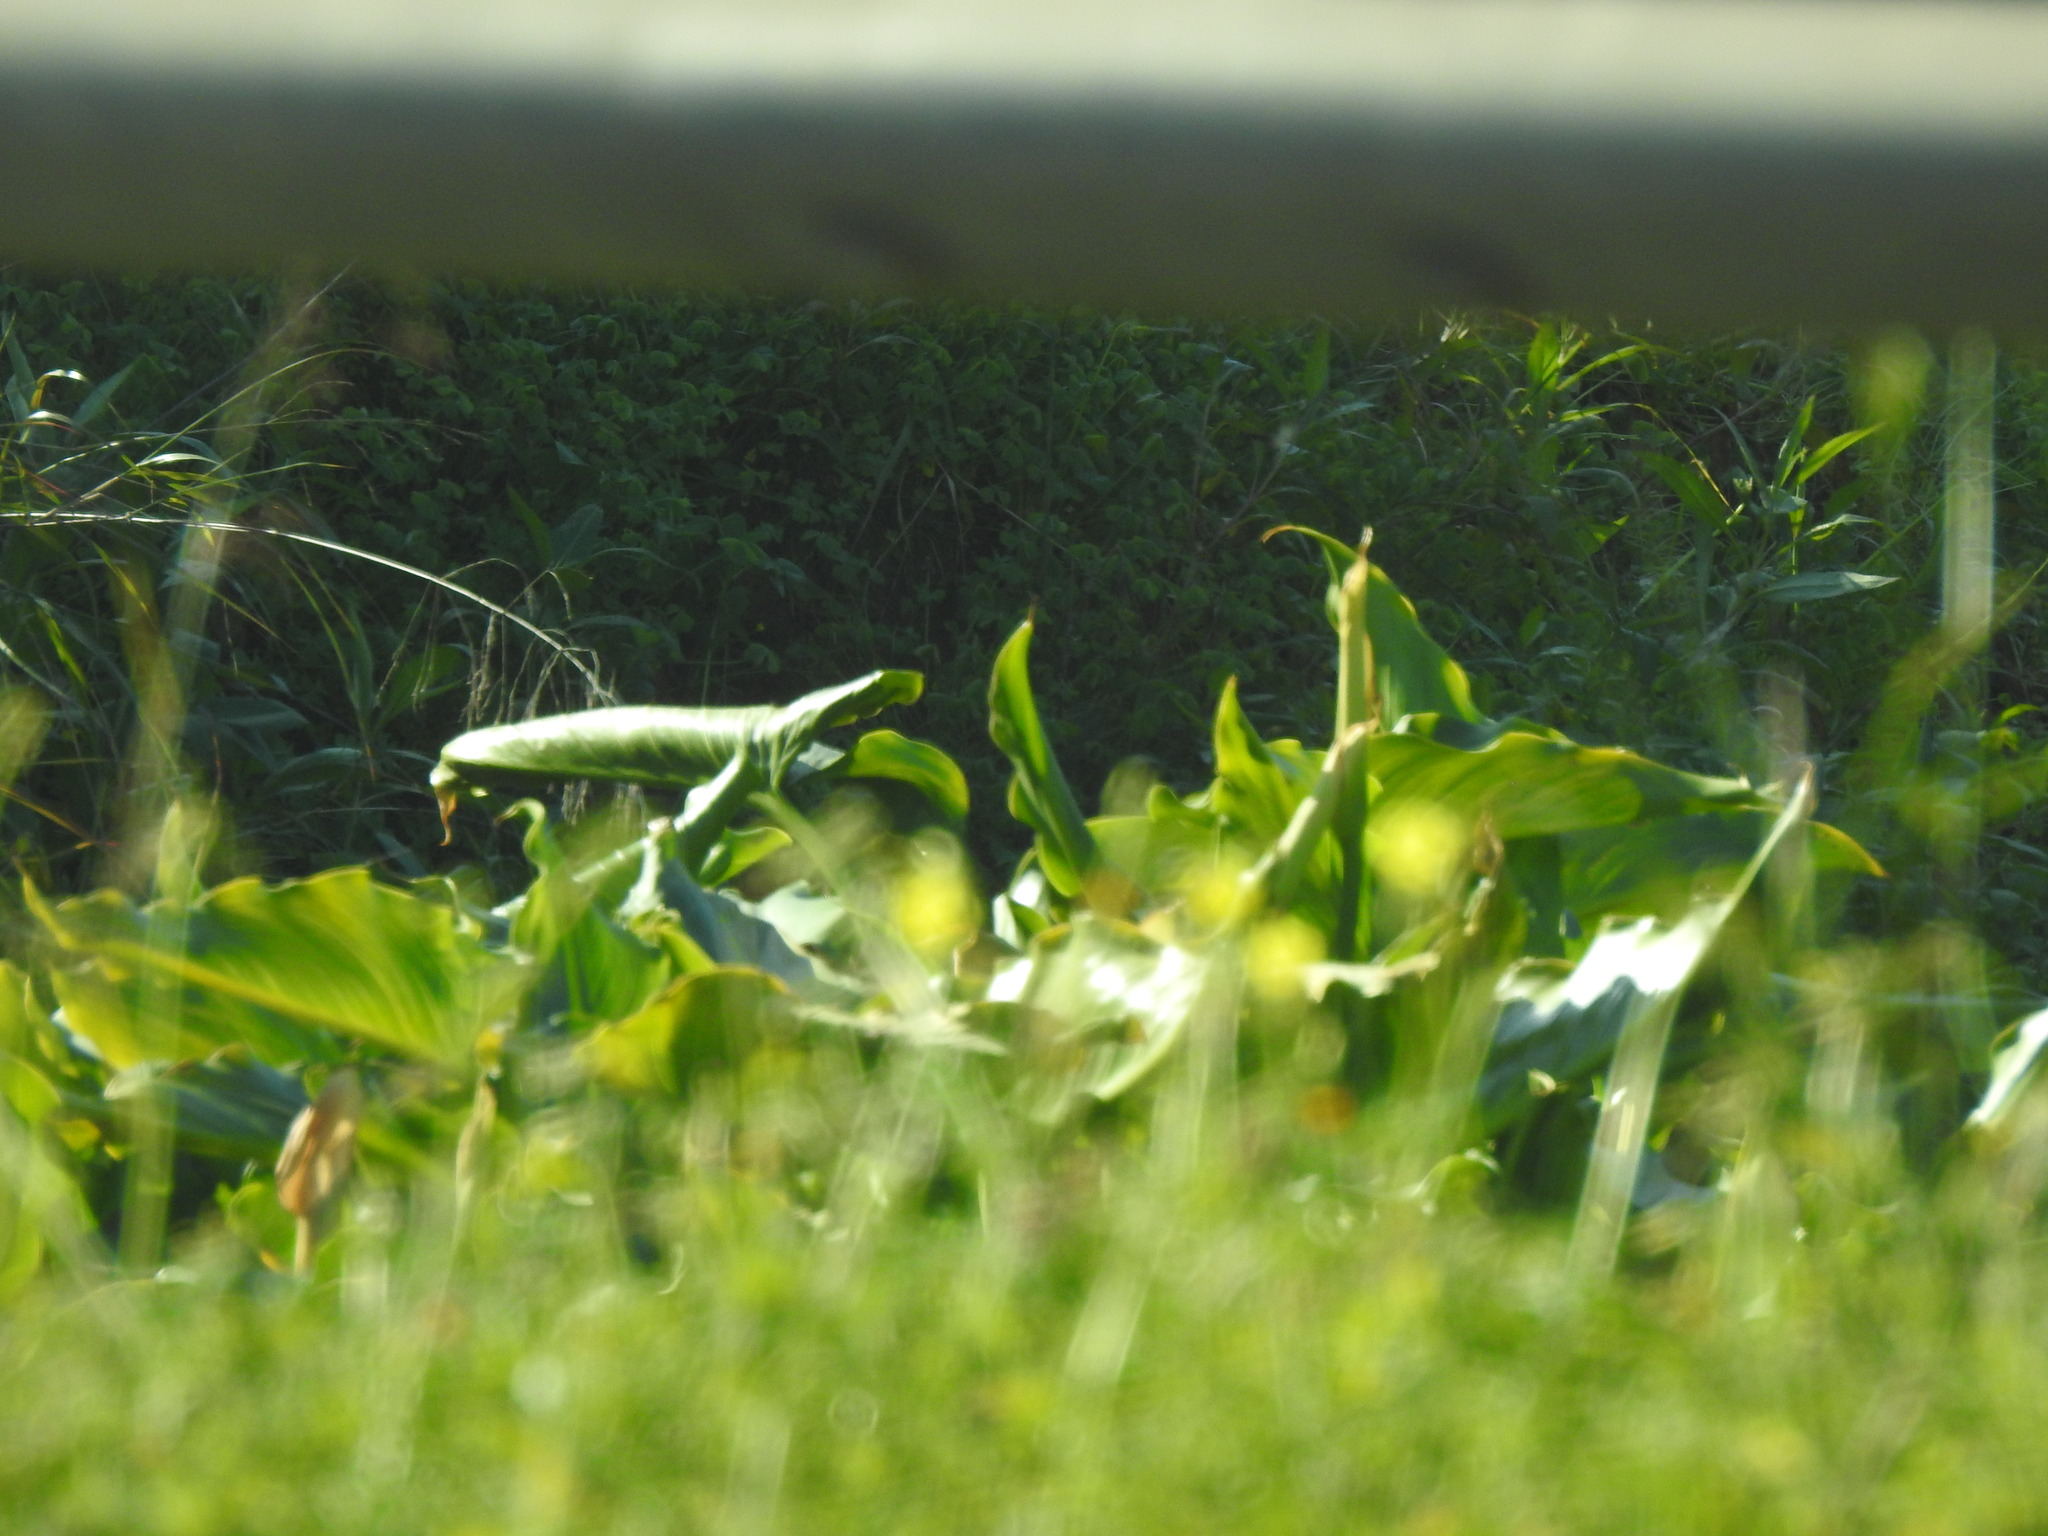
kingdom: Plantae
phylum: Tracheophyta
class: Liliopsida
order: Alismatales
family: Araceae
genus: Zantedeschia
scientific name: Zantedeschia aethiopica
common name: Altar-lily
